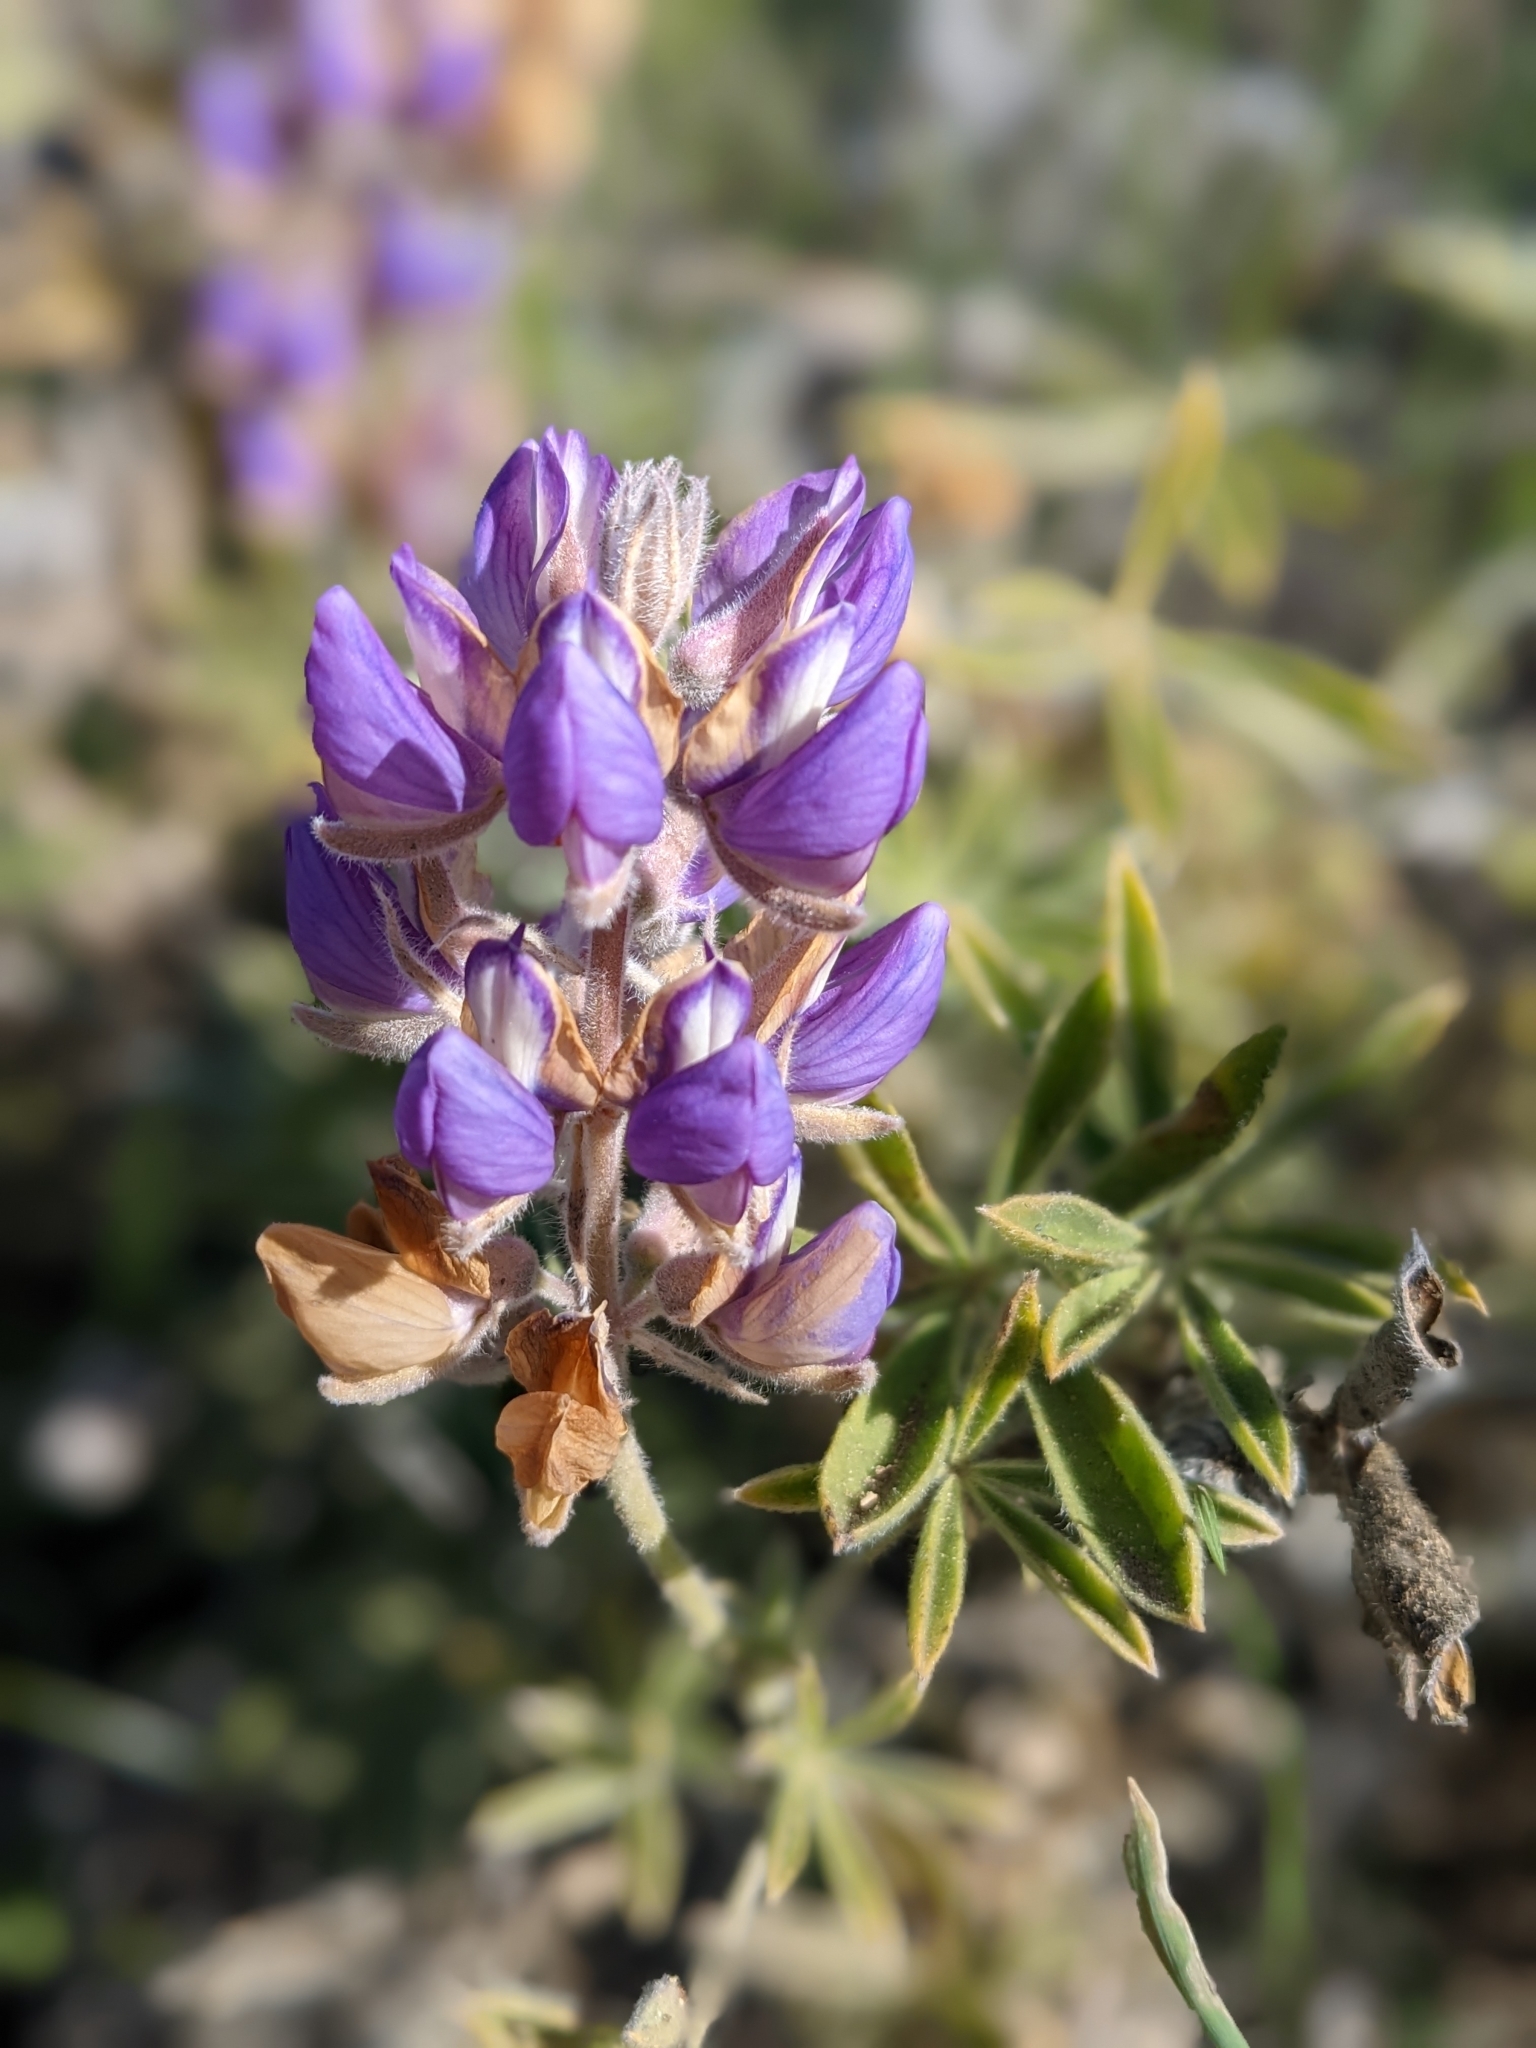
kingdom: Plantae
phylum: Tracheophyta
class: Magnoliopsida
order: Fabales
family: Fabaceae
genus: Lupinus
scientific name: Lupinus formosus
